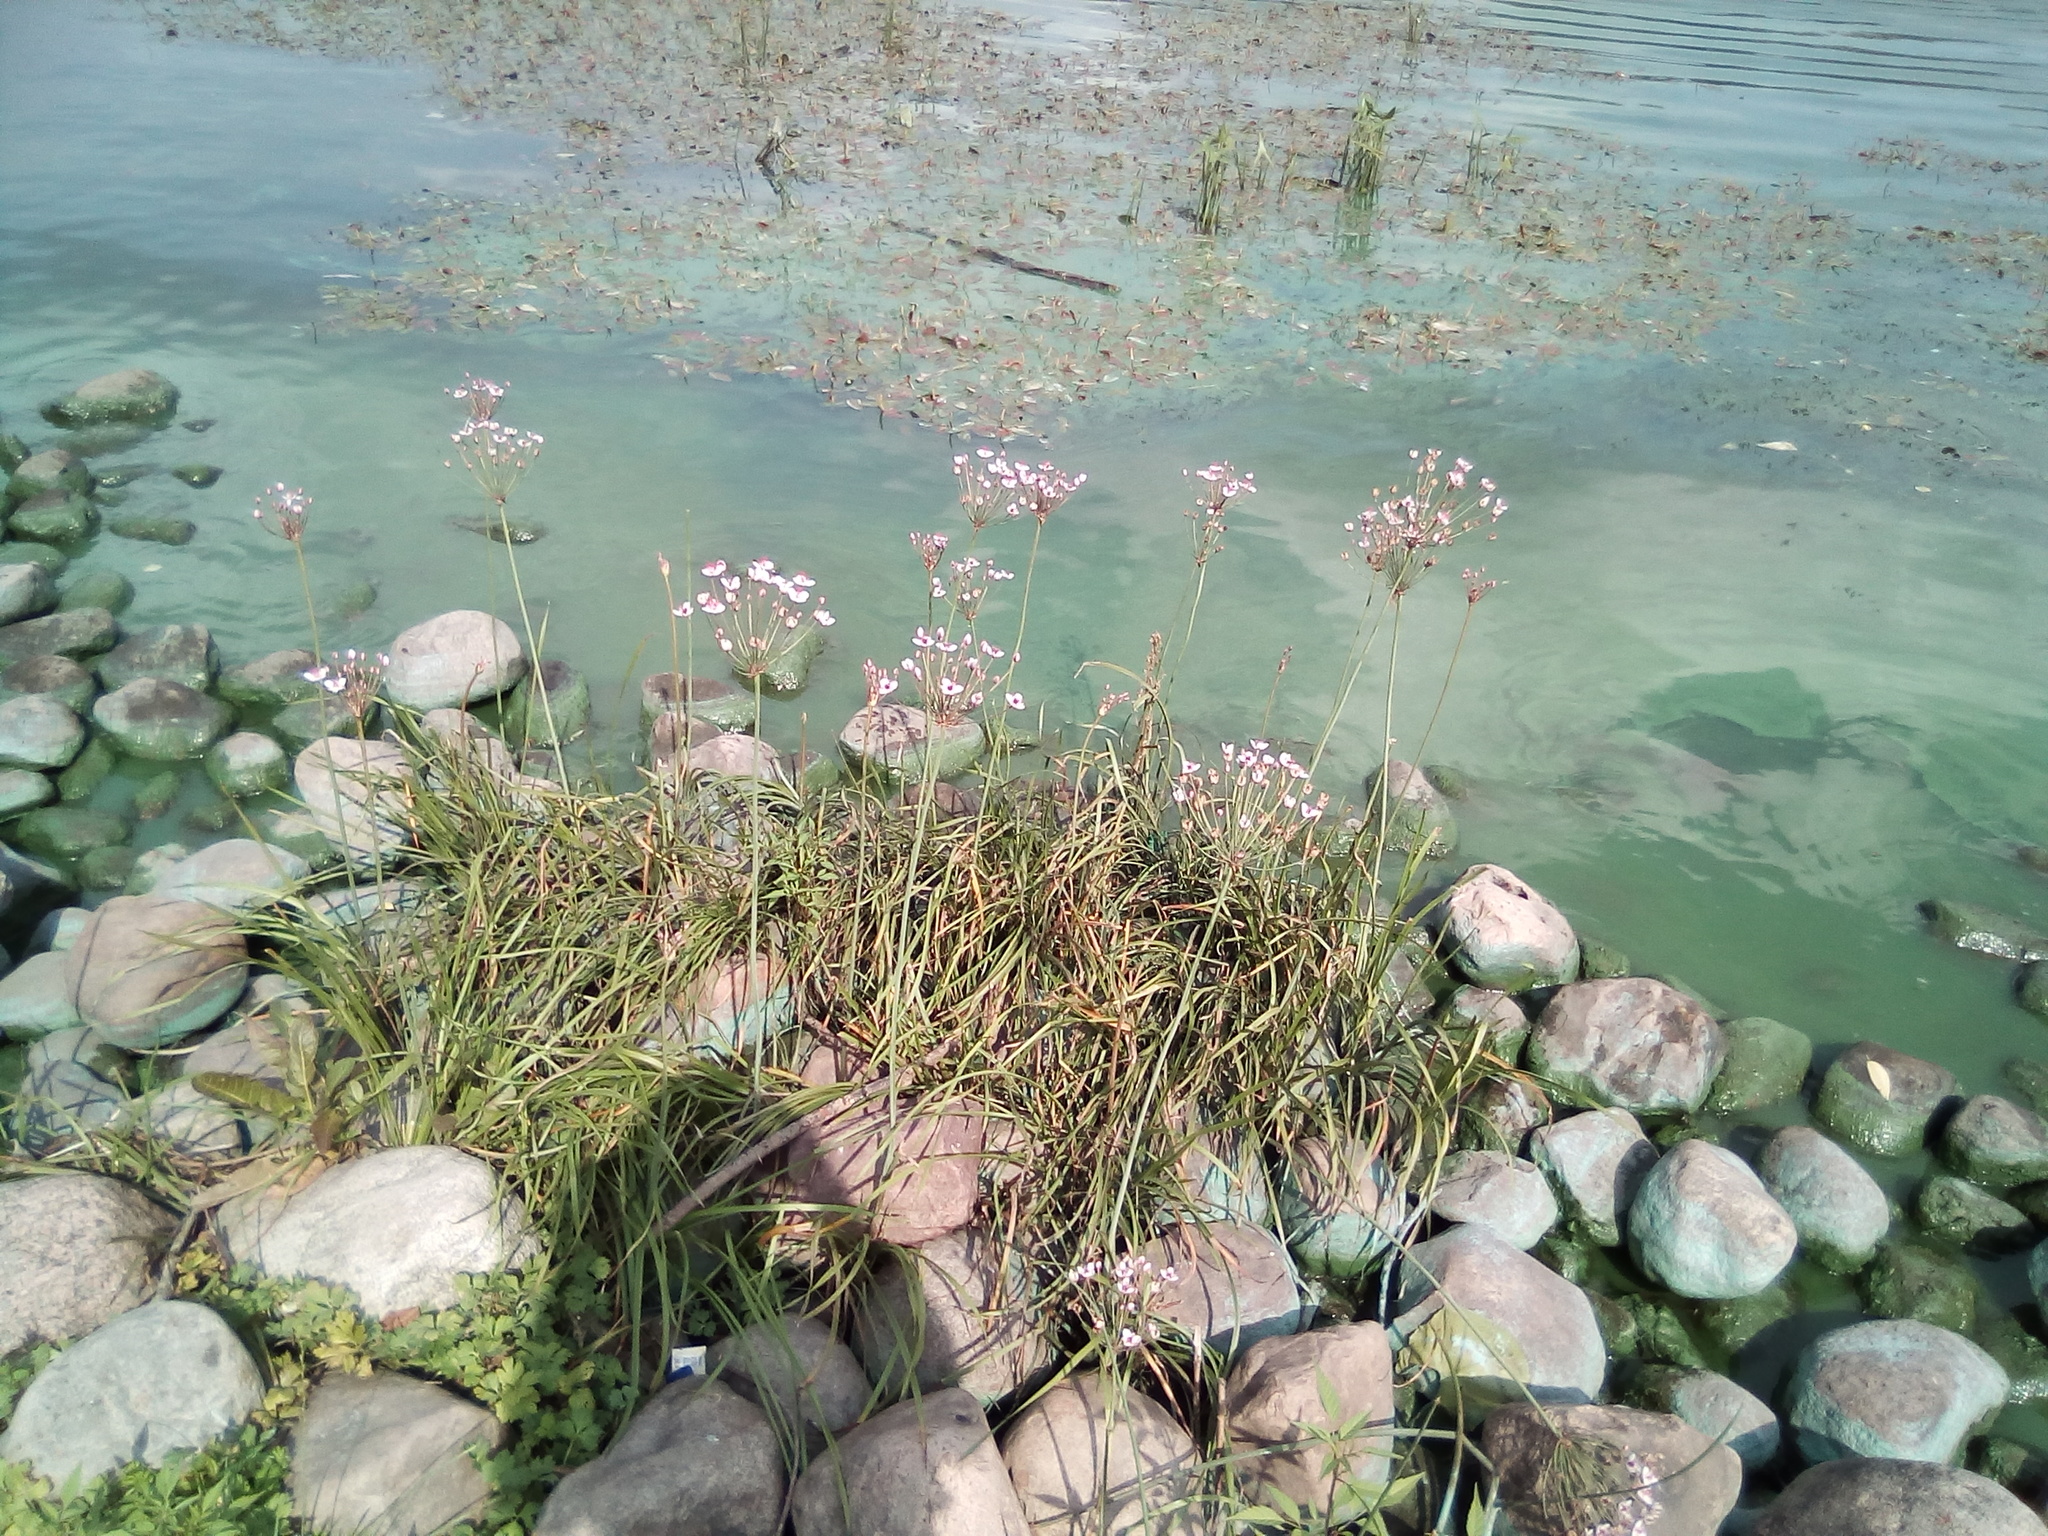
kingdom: Plantae
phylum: Tracheophyta
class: Liliopsida
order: Alismatales
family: Butomaceae
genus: Butomus
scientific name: Butomus umbellatus
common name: Flowering-rush
